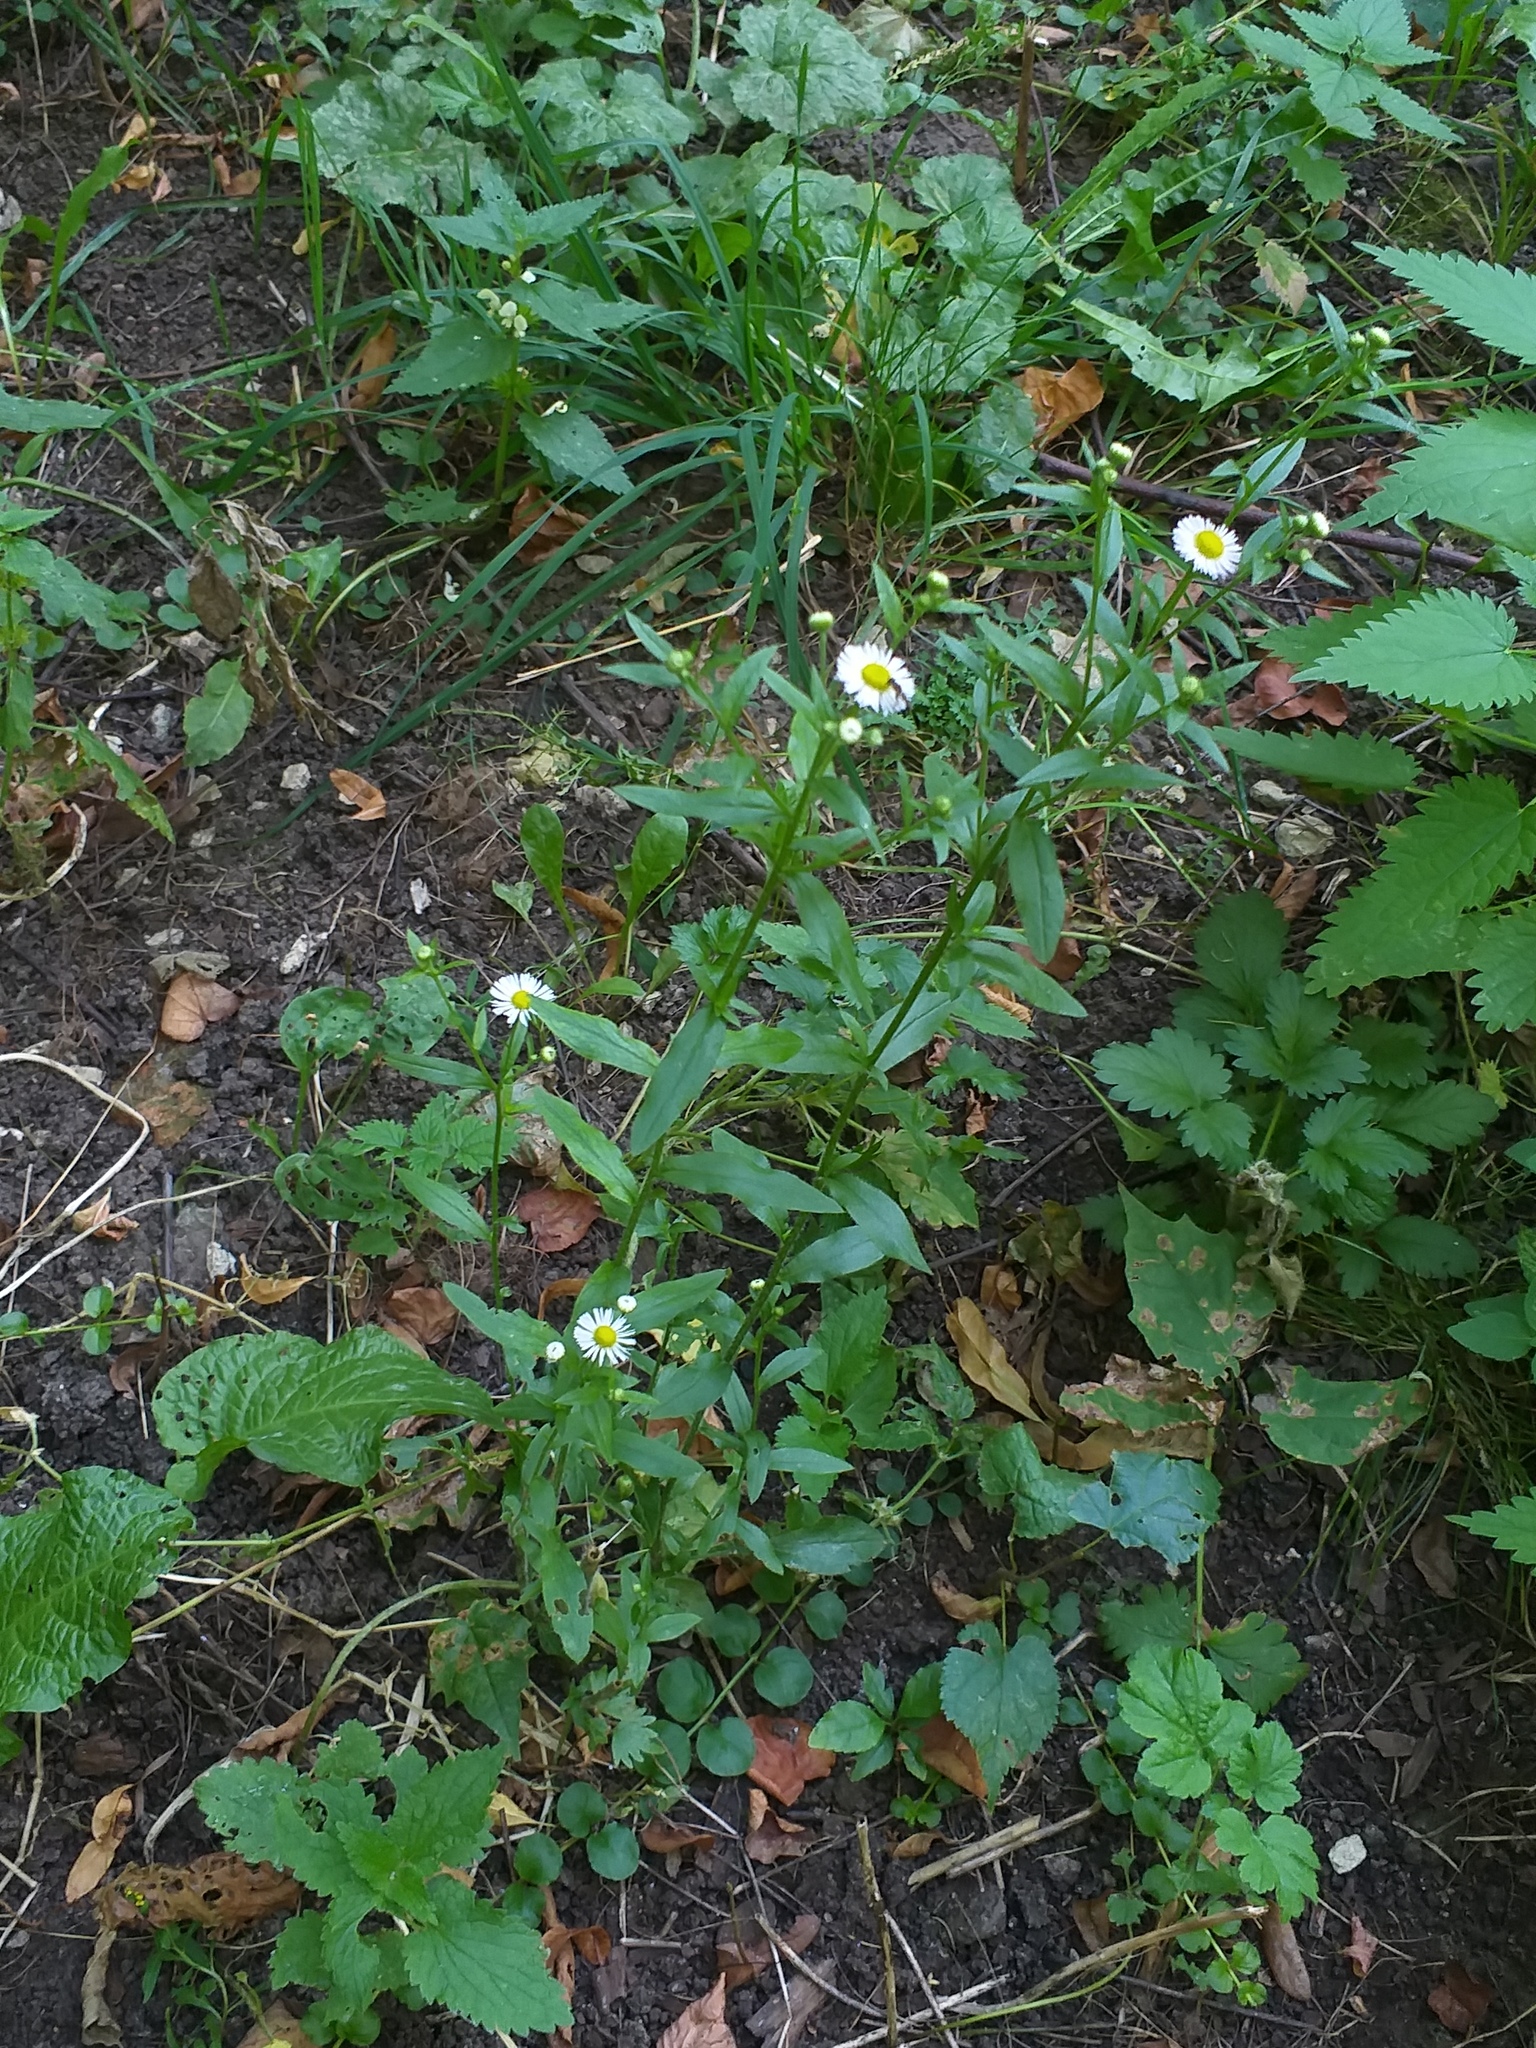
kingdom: Plantae
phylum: Tracheophyta
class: Magnoliopsida
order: Asterales
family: Asteraceae
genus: Erigeron
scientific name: Erigeron annuus
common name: Tall fleabane
